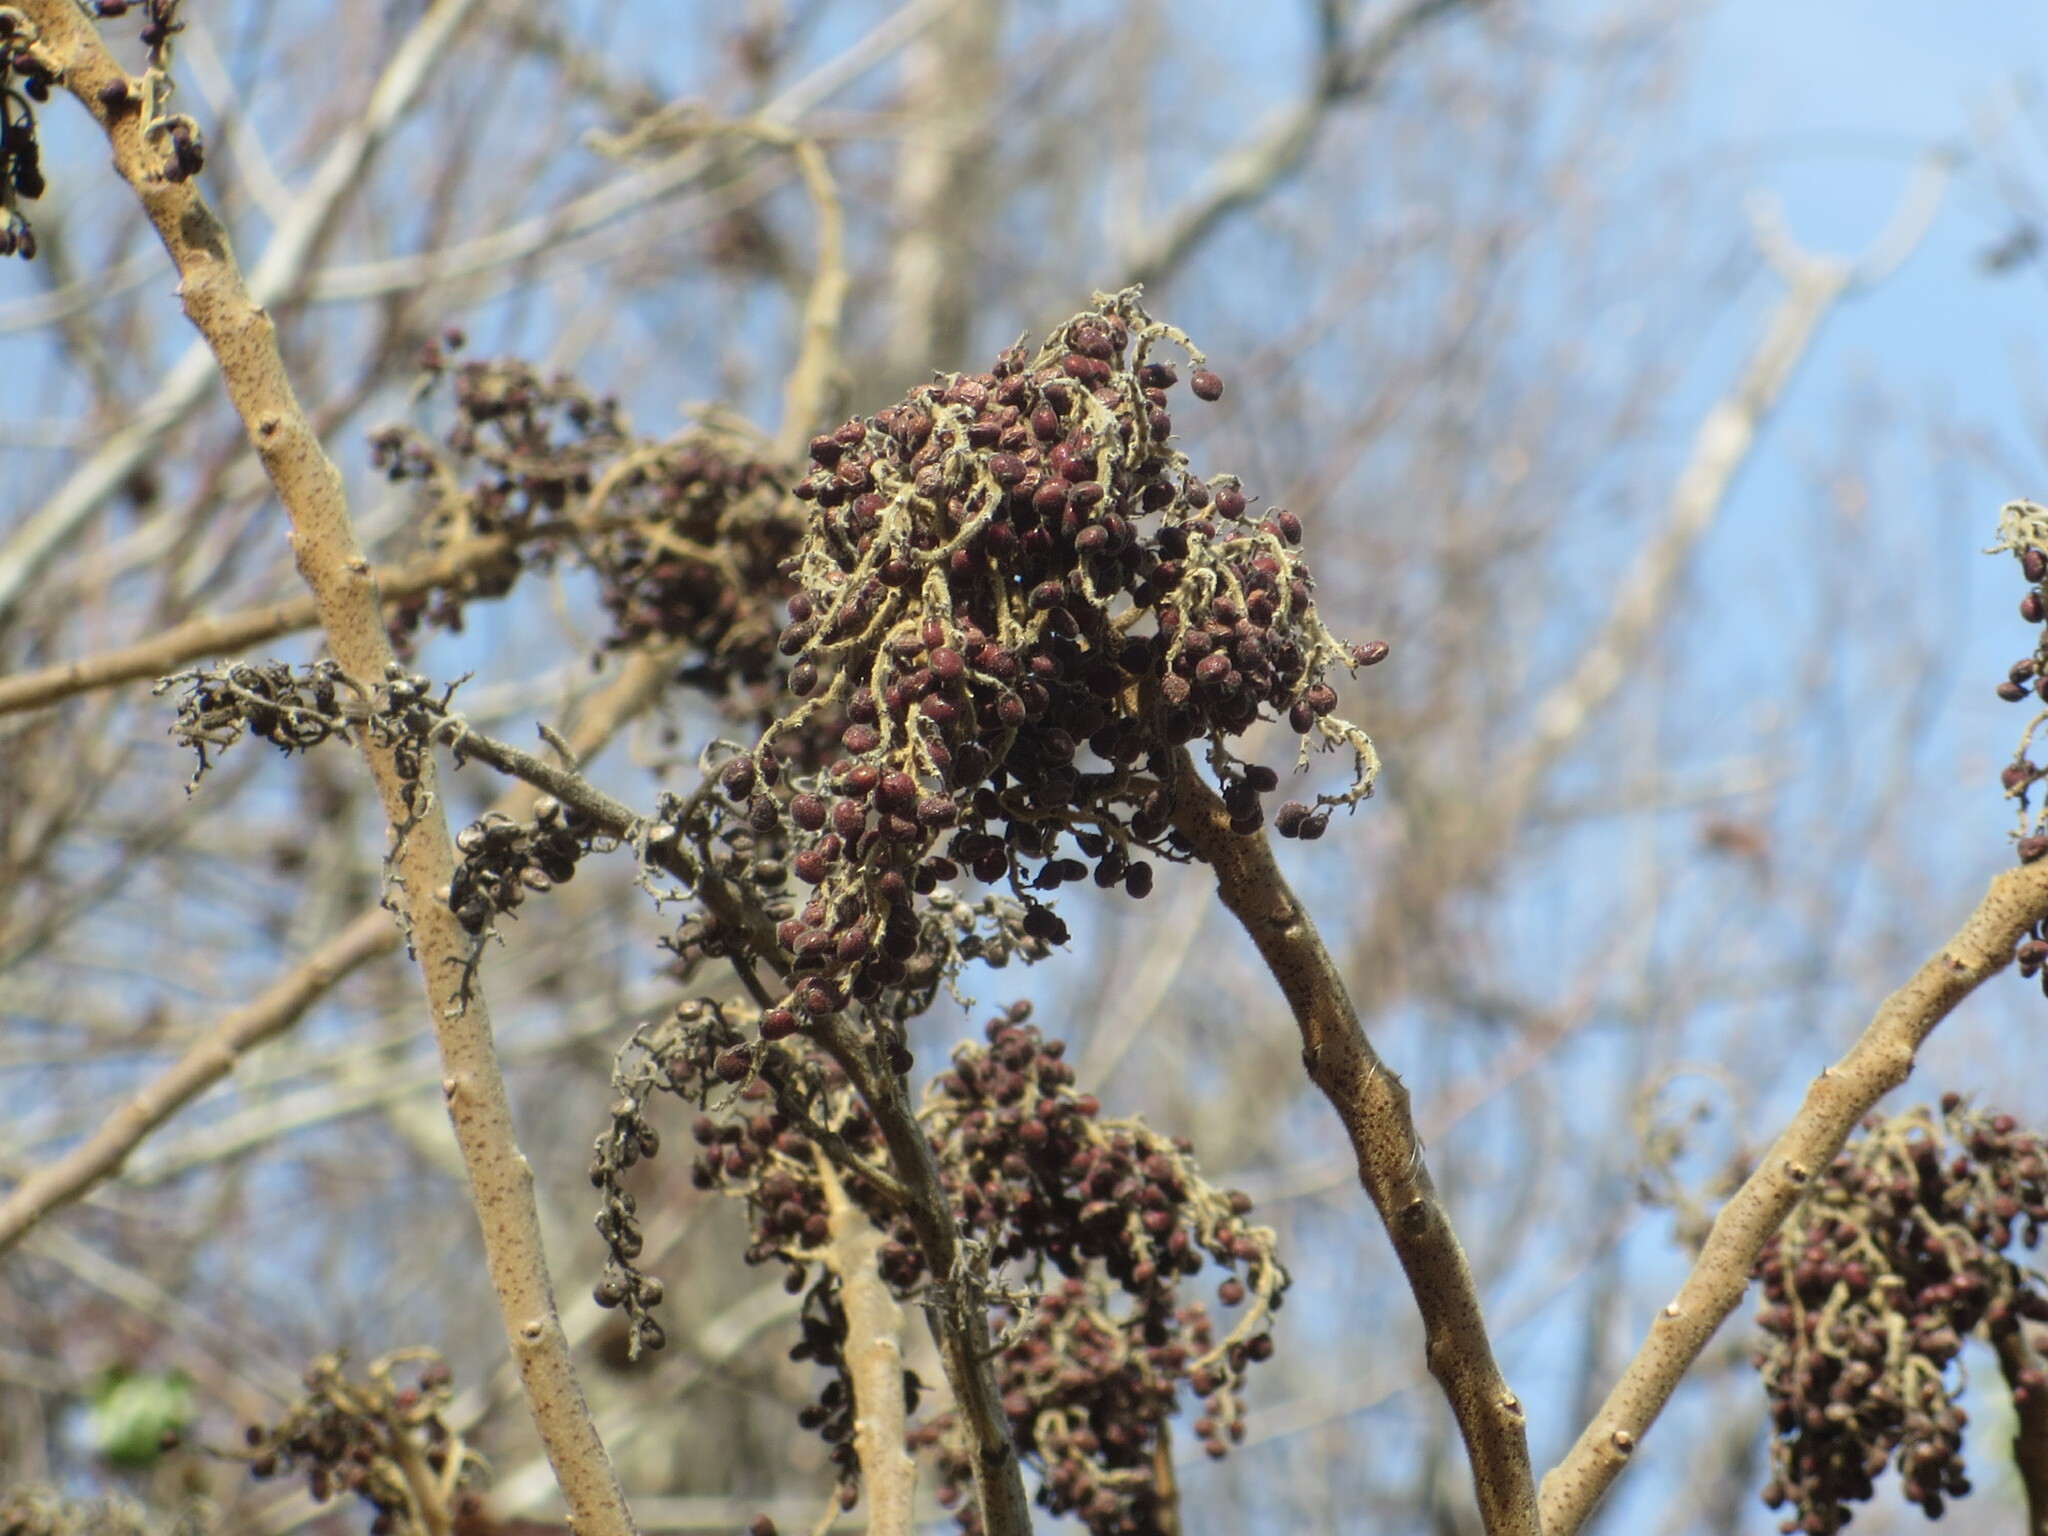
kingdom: Plantae
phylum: Tracheophyta
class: Magnoliopsida
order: Sapindales
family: Anacardiaceae
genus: Rhus
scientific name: Rhus copallina
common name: Shining sumac
